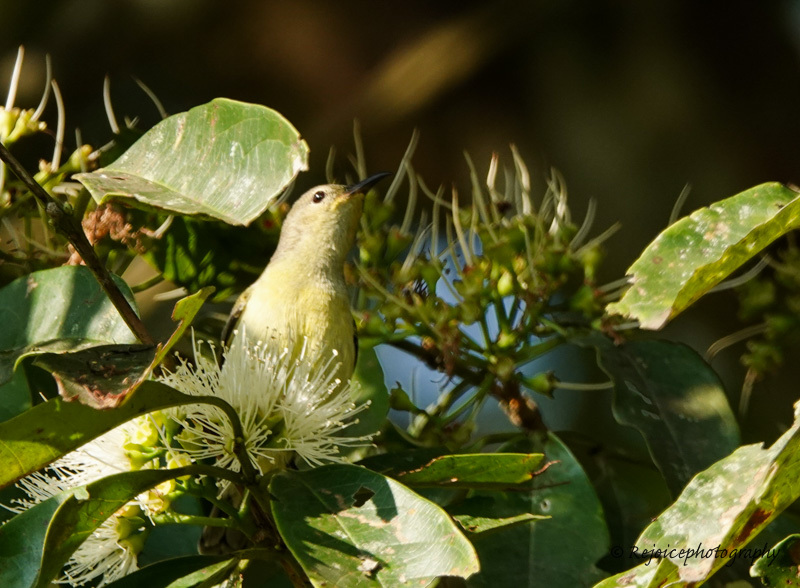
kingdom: Animalia
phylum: Chordata
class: Aves
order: Passeriformes
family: Nectariniidae
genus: Leptocoma
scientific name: Leptocoma brasiliana
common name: Van hasselt's sunbird
